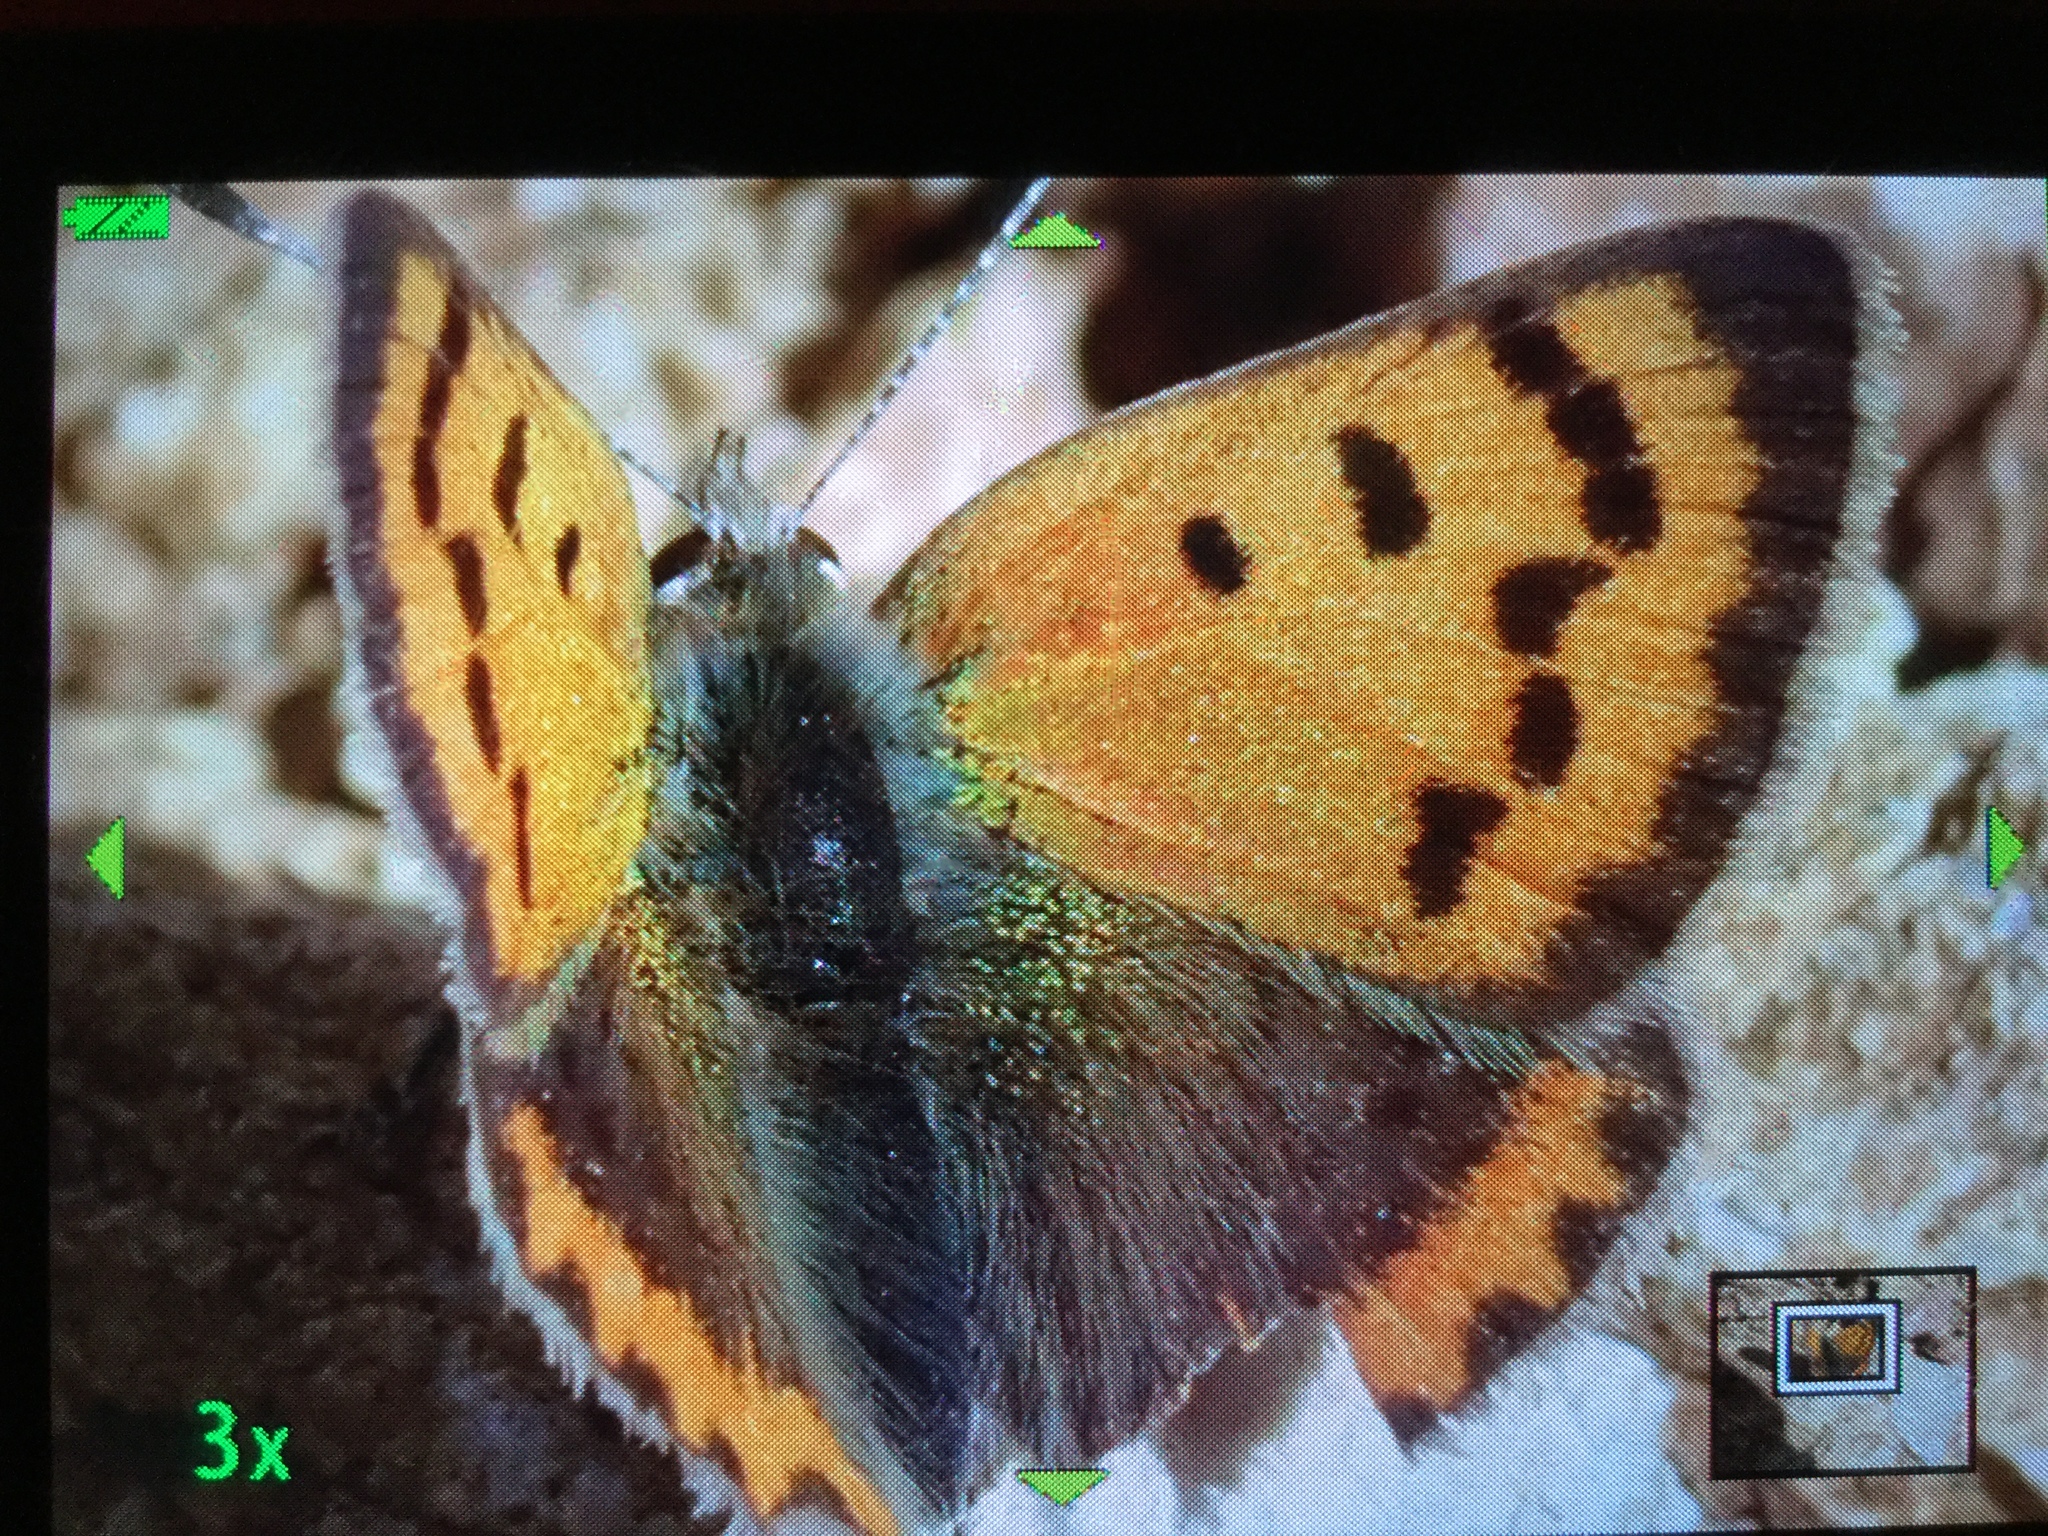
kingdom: Animalia
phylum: Arthropoda
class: Insecta
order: Lepidoptera
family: Lycaenidae
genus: Lycaena
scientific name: Lycaena phlaeas
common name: Small copper
